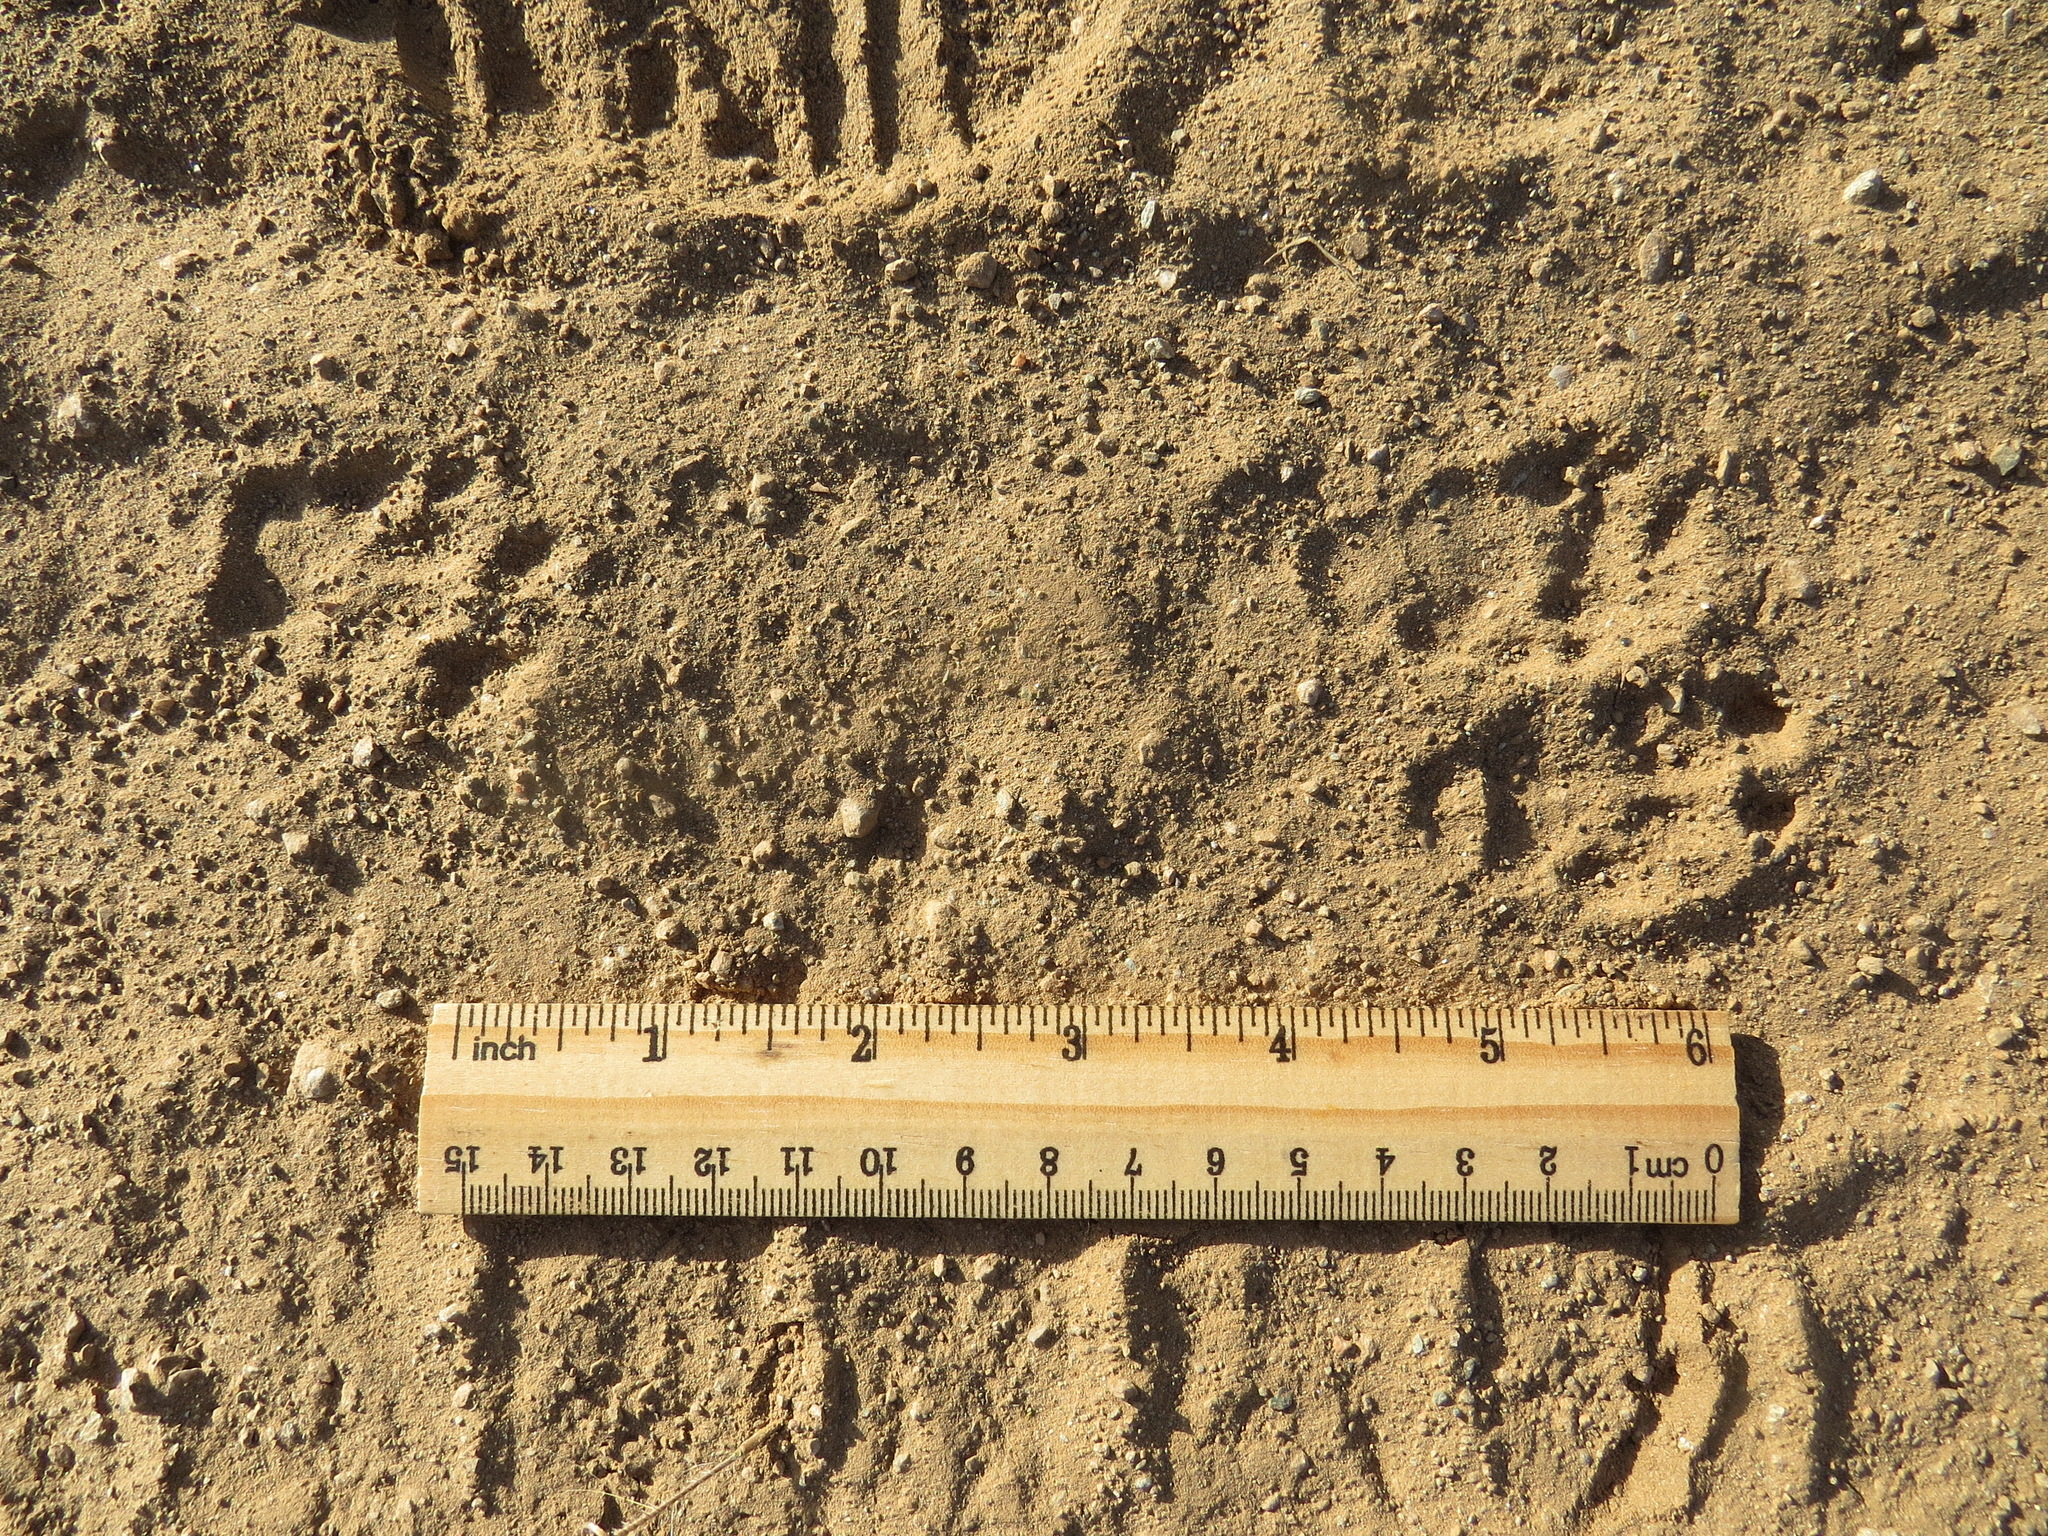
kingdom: Animalia
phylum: Chordata
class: Mammalia
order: Carnivora
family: Mephitidae
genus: Mephitis
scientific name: Mephitis mephitis
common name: Striped skunk
